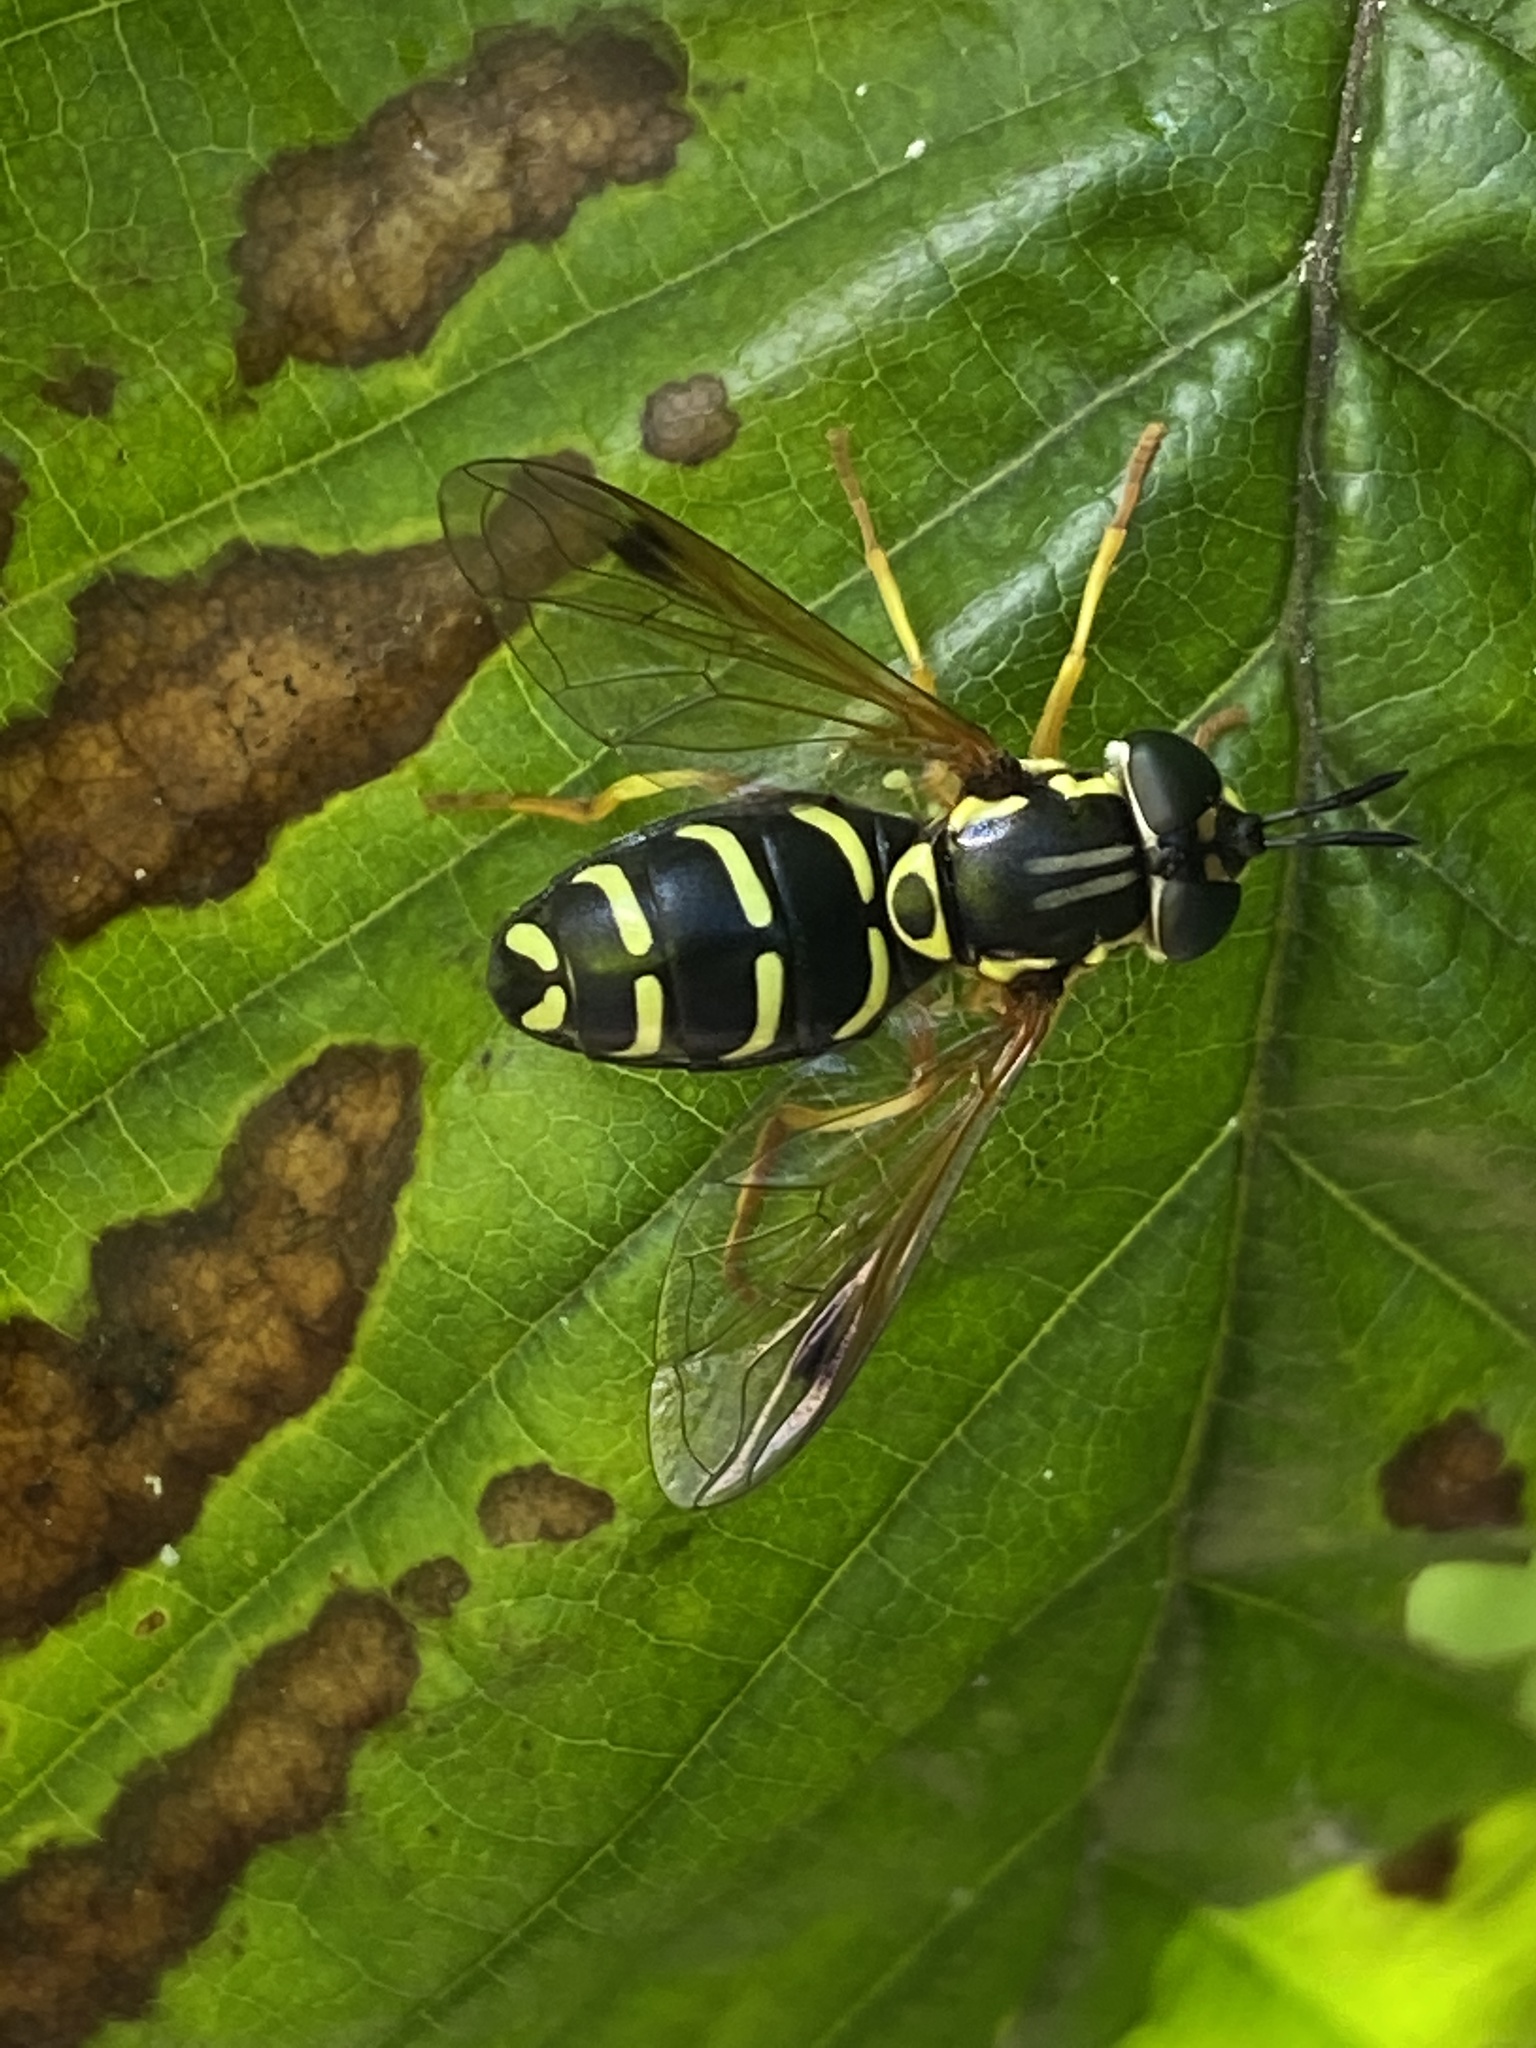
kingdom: Animalia
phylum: Arthropoda
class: Insecta
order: Diptera
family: Syrphidae
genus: Chrysotoxum
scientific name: Chrysotoxum festivum
